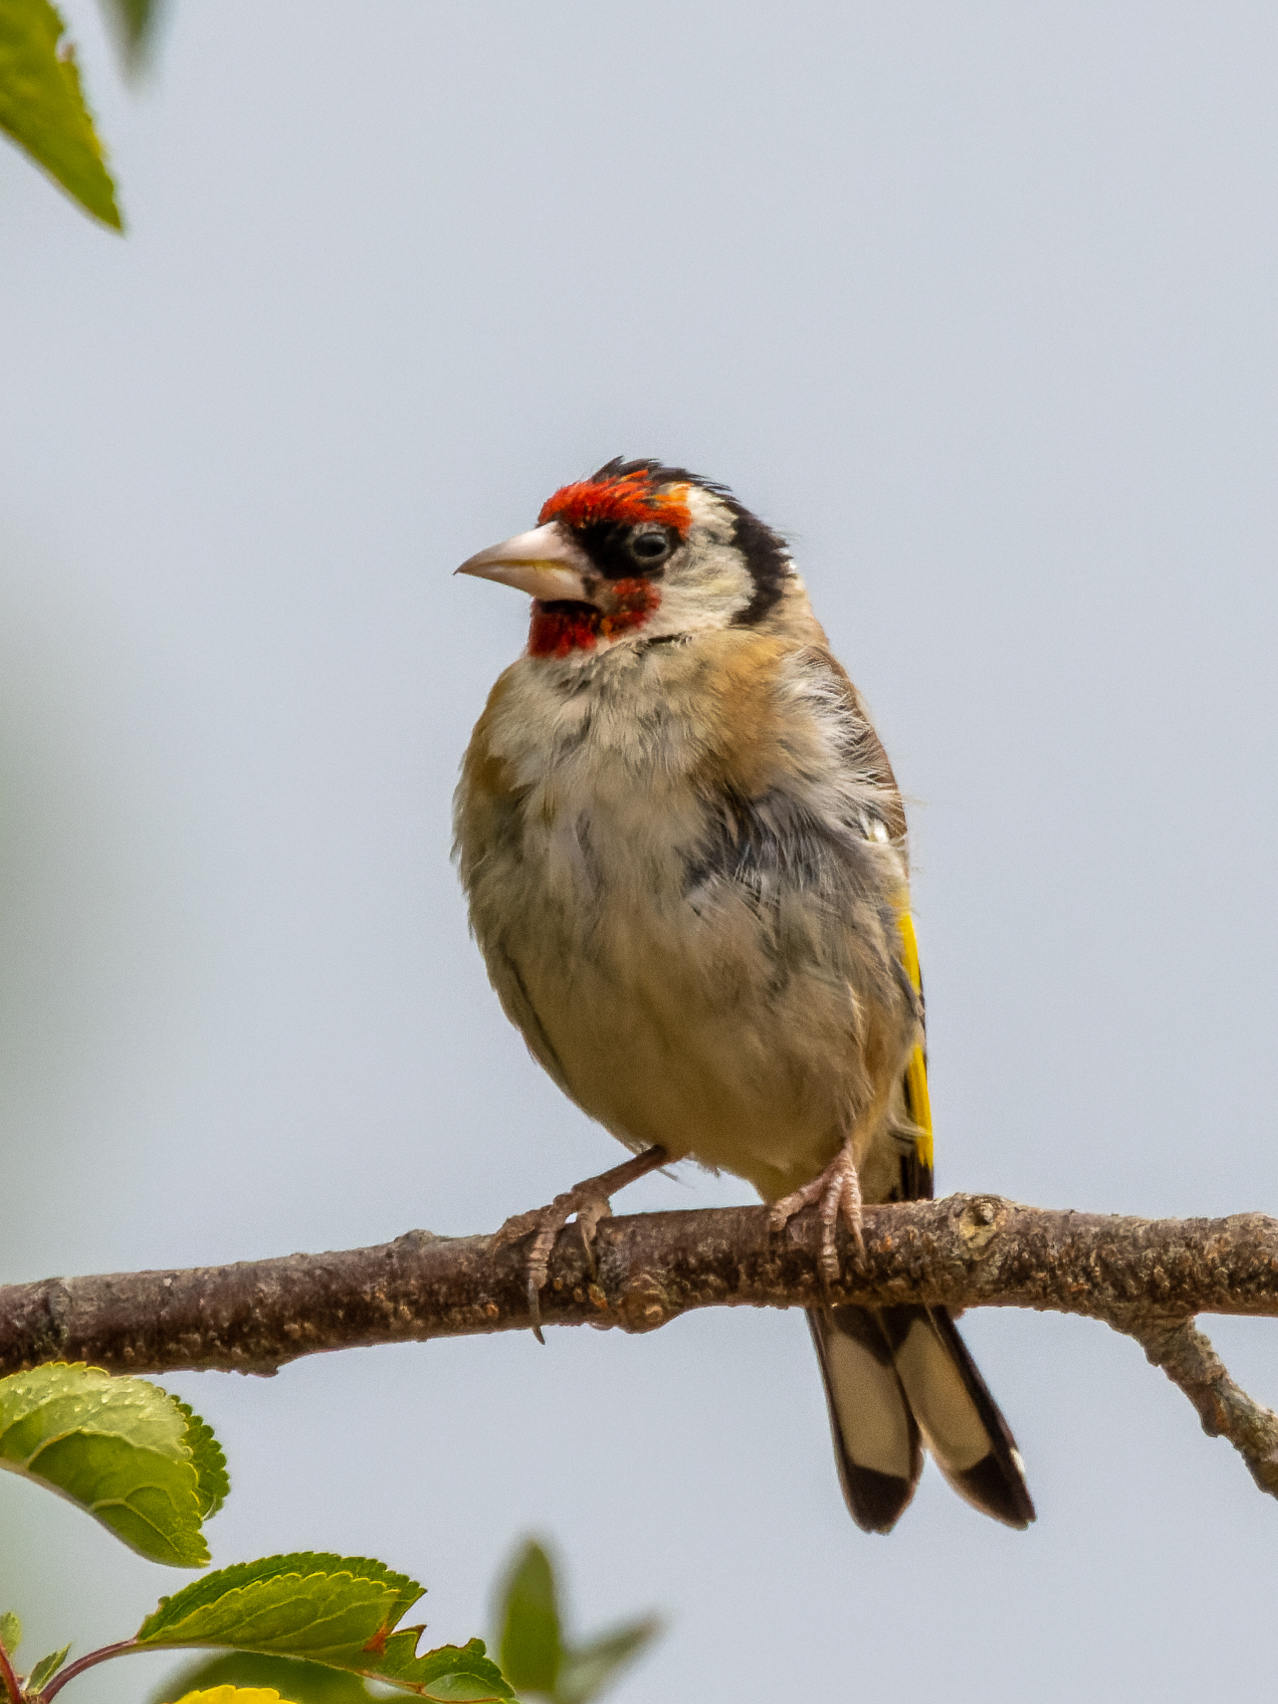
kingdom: Animalia
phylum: Chordata
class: Aves
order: Passeriformes
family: Fringillidae
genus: Carduelis
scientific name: Carduelis carduelis
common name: European goldfinch
